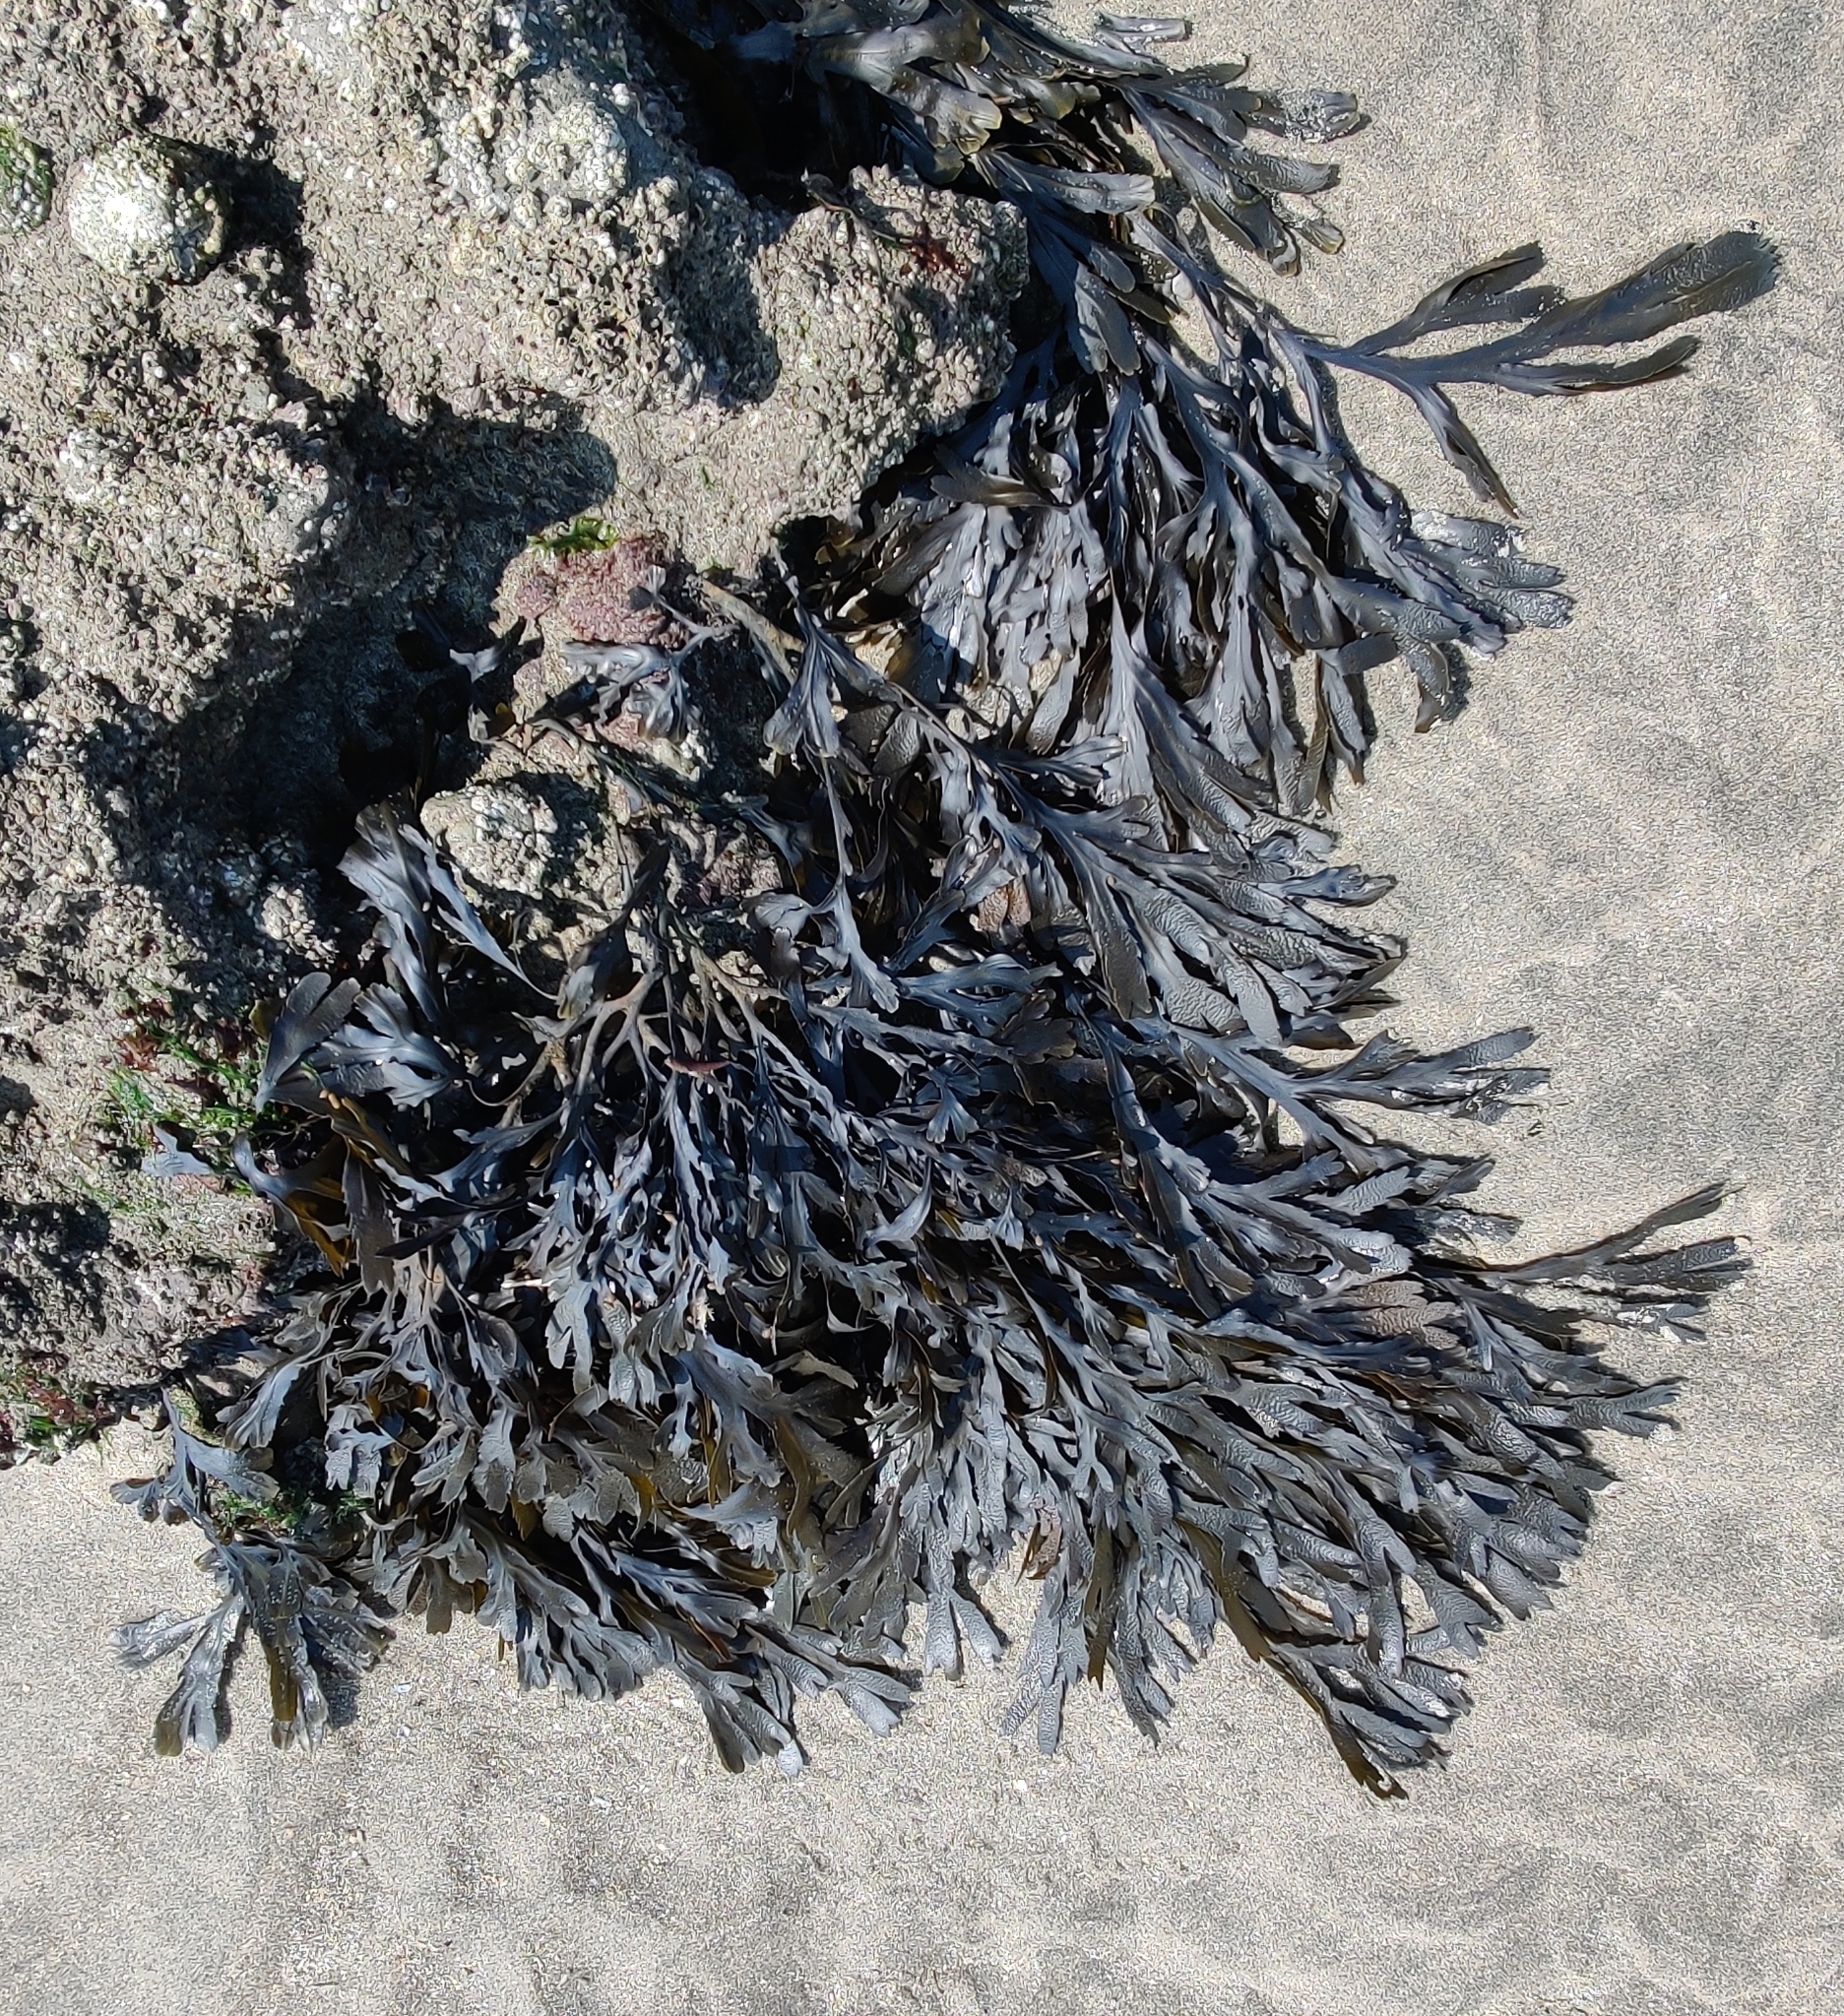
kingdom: Chromista
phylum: Ochrophyta
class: Phaeophyceae
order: Fucales
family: Fucaceae
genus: Fucus
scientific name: Fucus serratus
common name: Toothed wrack
